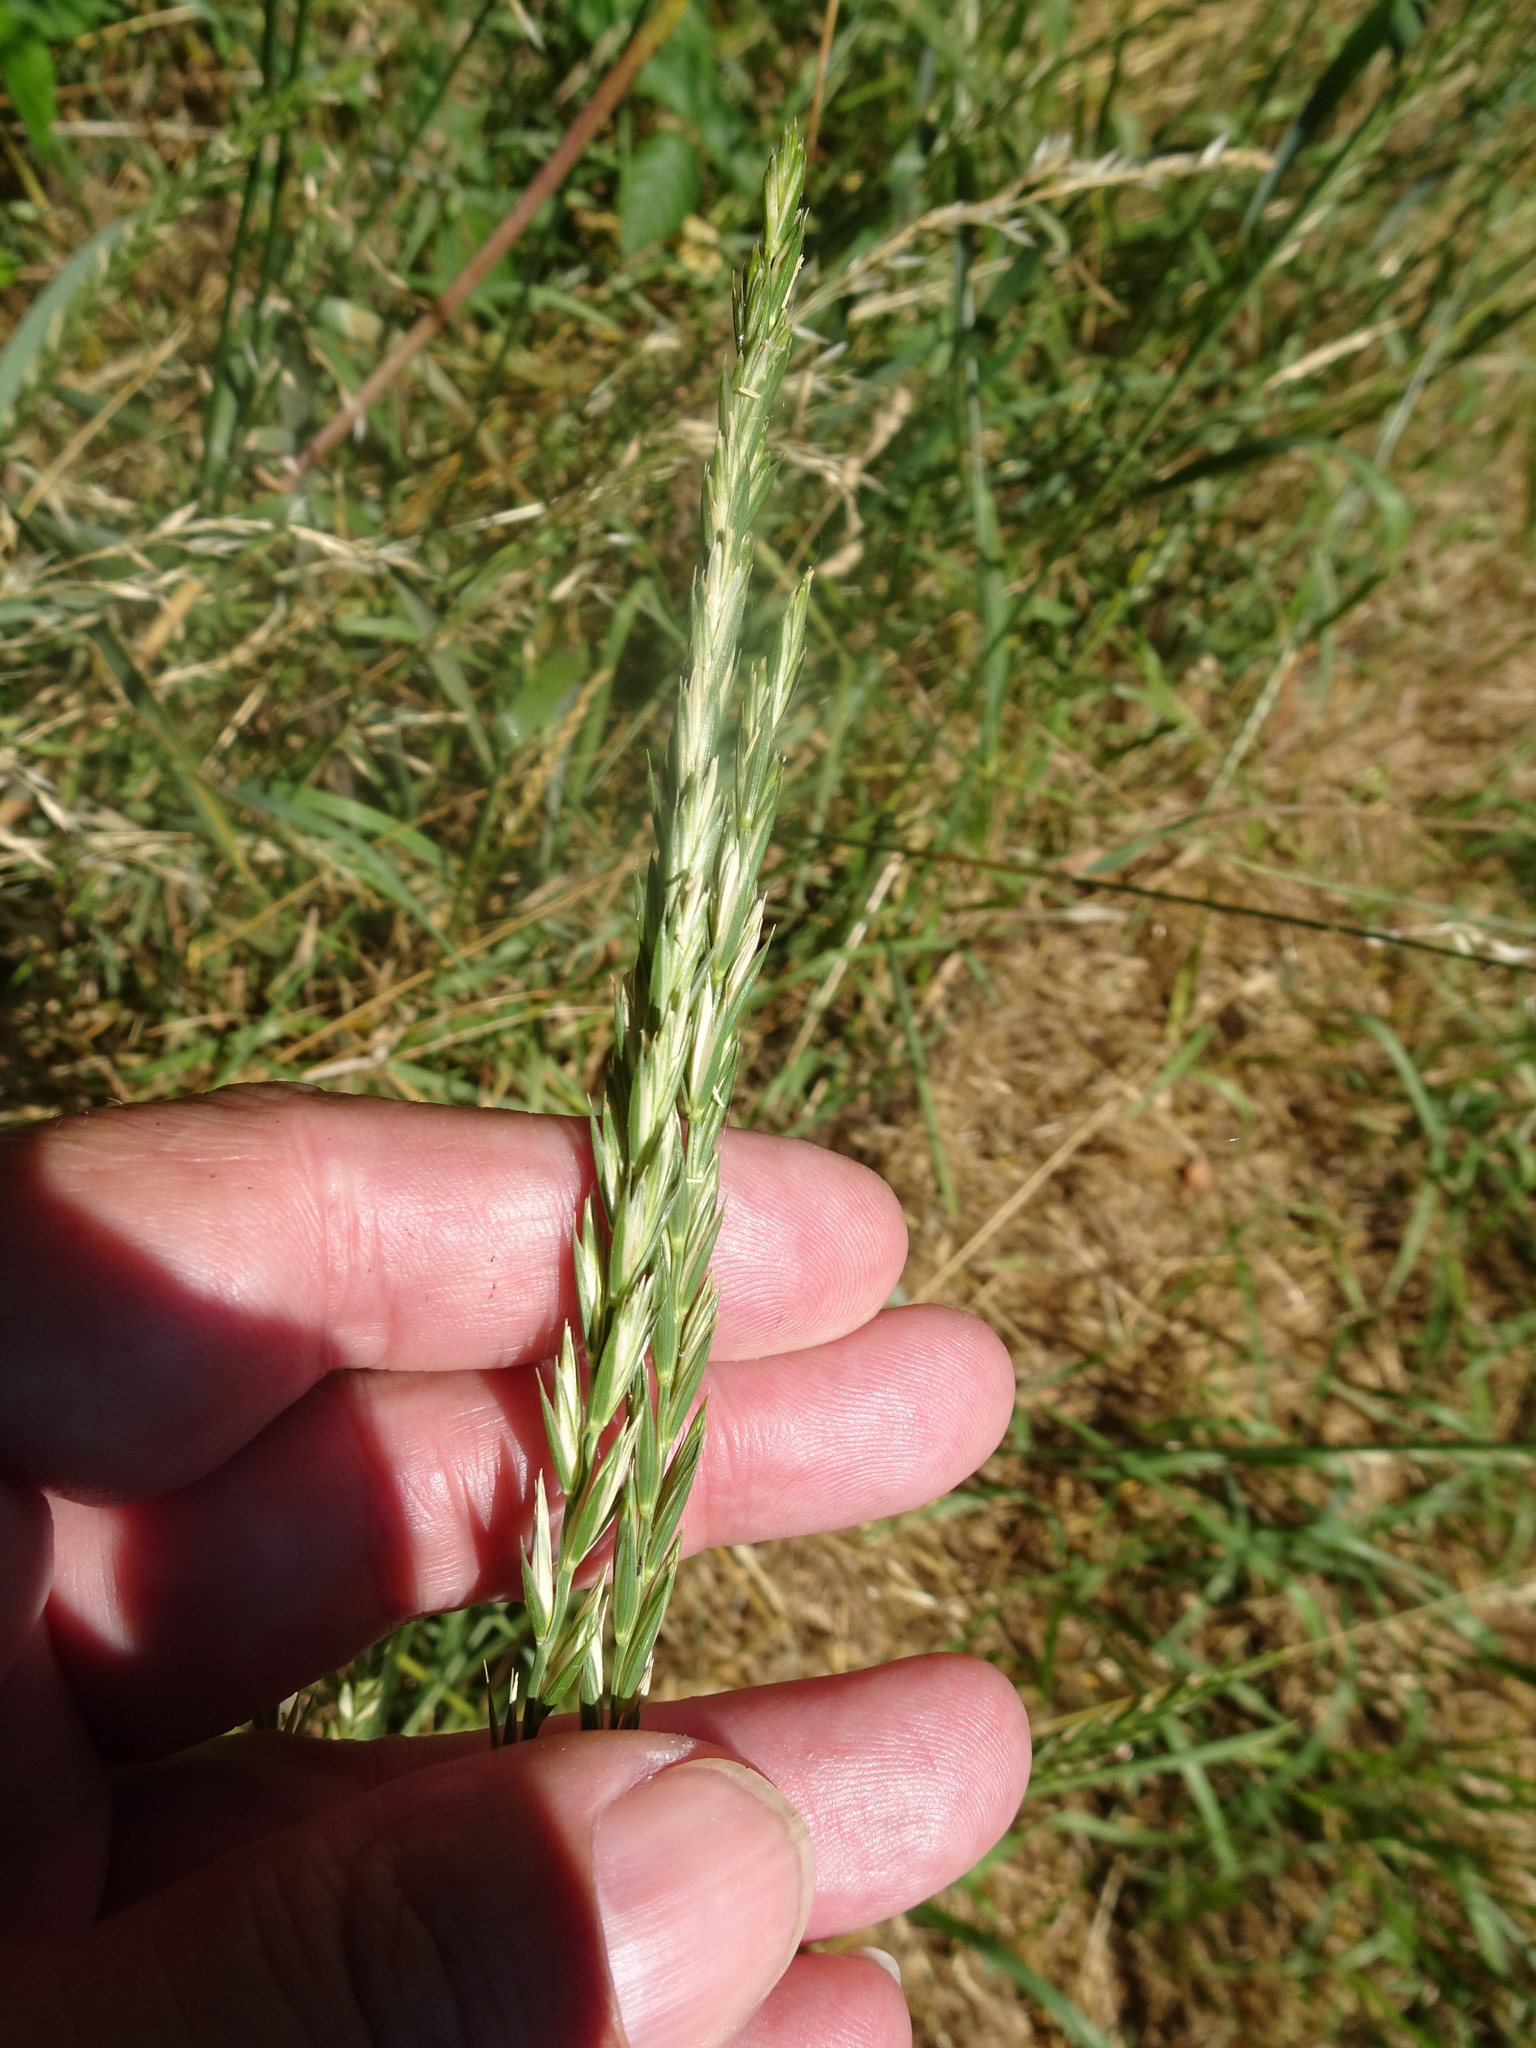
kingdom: Plantae
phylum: Tracheophyta
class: Liliopsida
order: Poales
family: Poaceae
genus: Elymus
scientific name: Elymus repens
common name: Quackgrass
